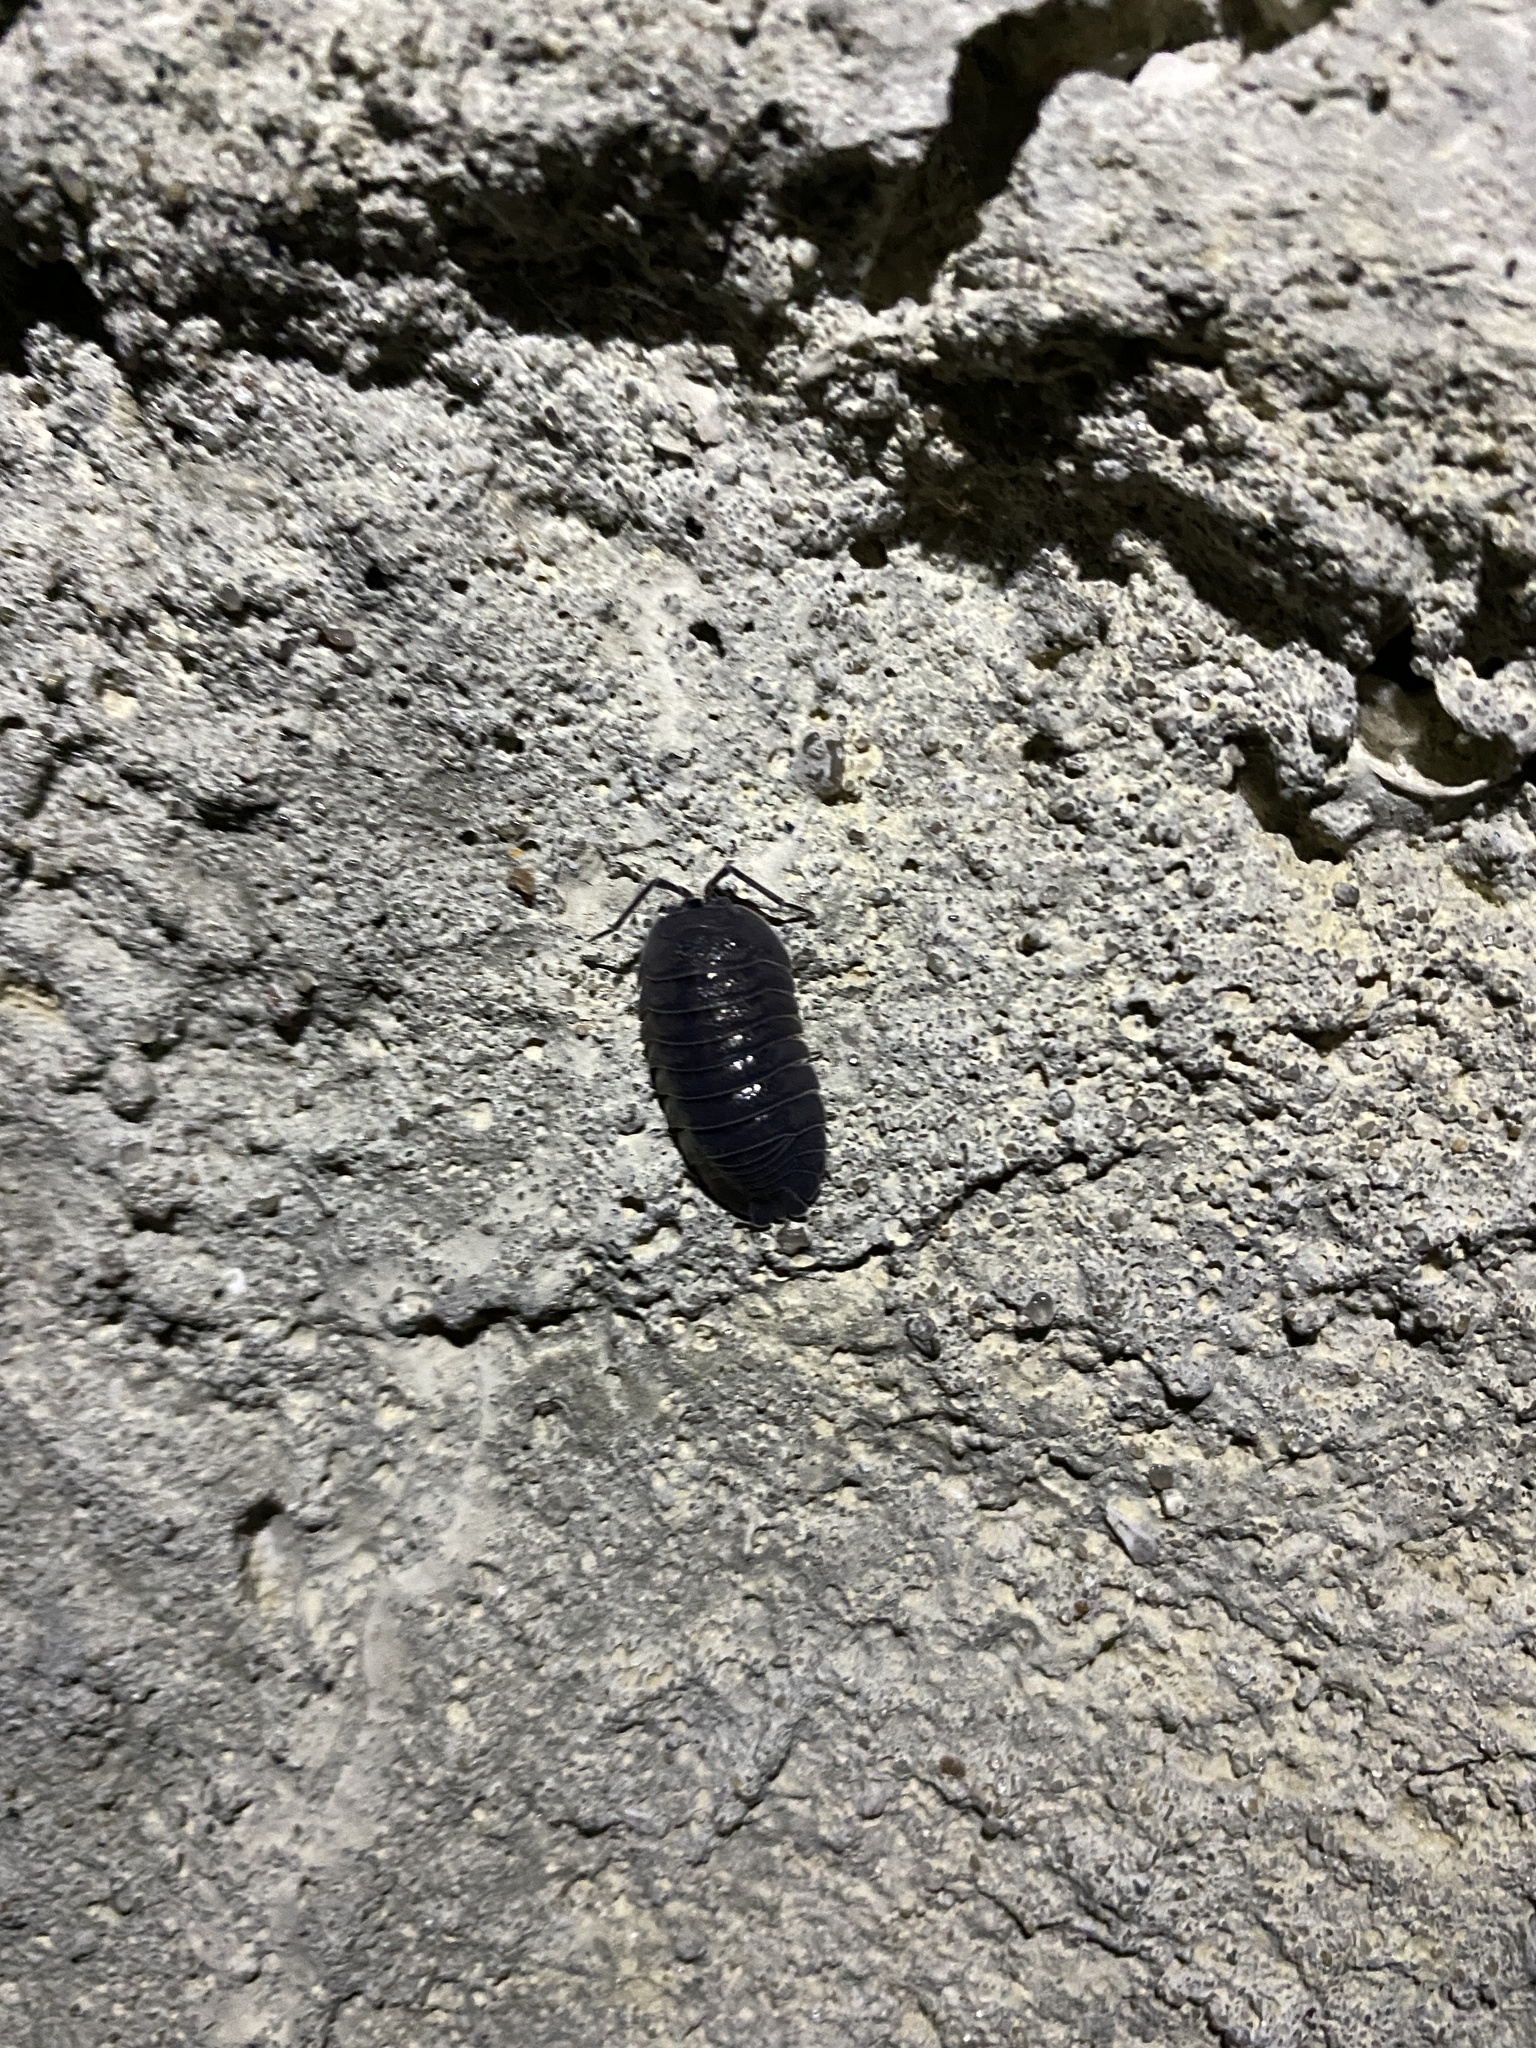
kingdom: Animalia
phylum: Arthropoda
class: Malacostraca
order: Isopoda
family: Armadillidiidae
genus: Armadillidium
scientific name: Armadillidium pallasii
